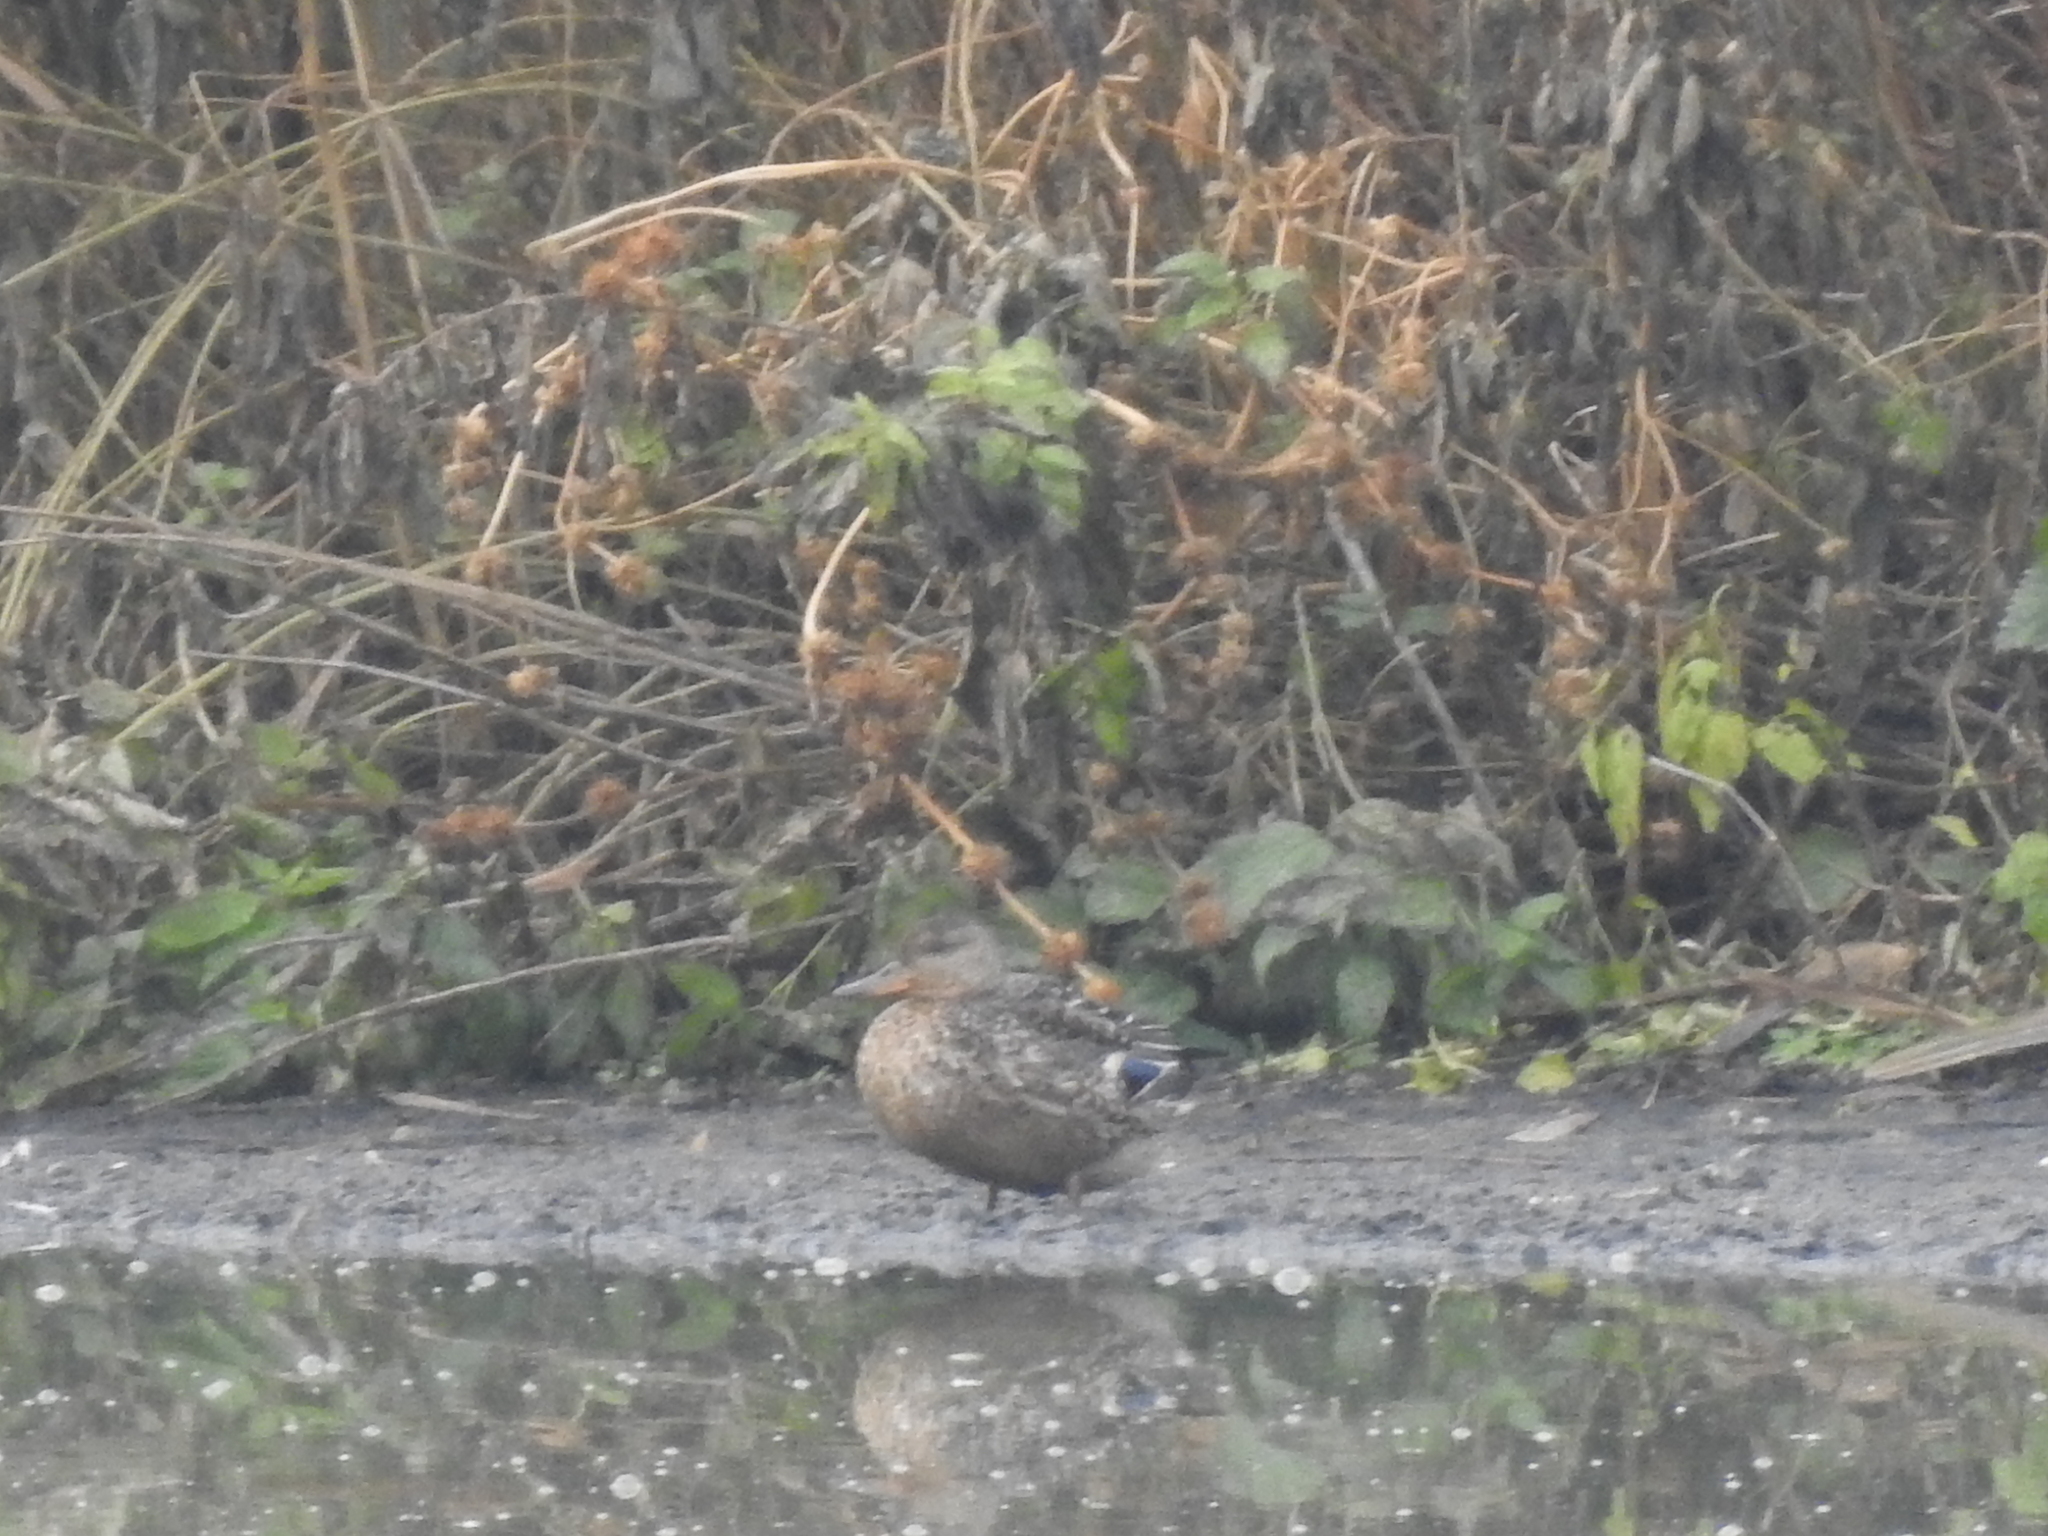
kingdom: Animalia
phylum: Chordata
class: Aves
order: Anseriformes
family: Anatidae
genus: Anas
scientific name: Anas platyrhynchos
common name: Mallard
